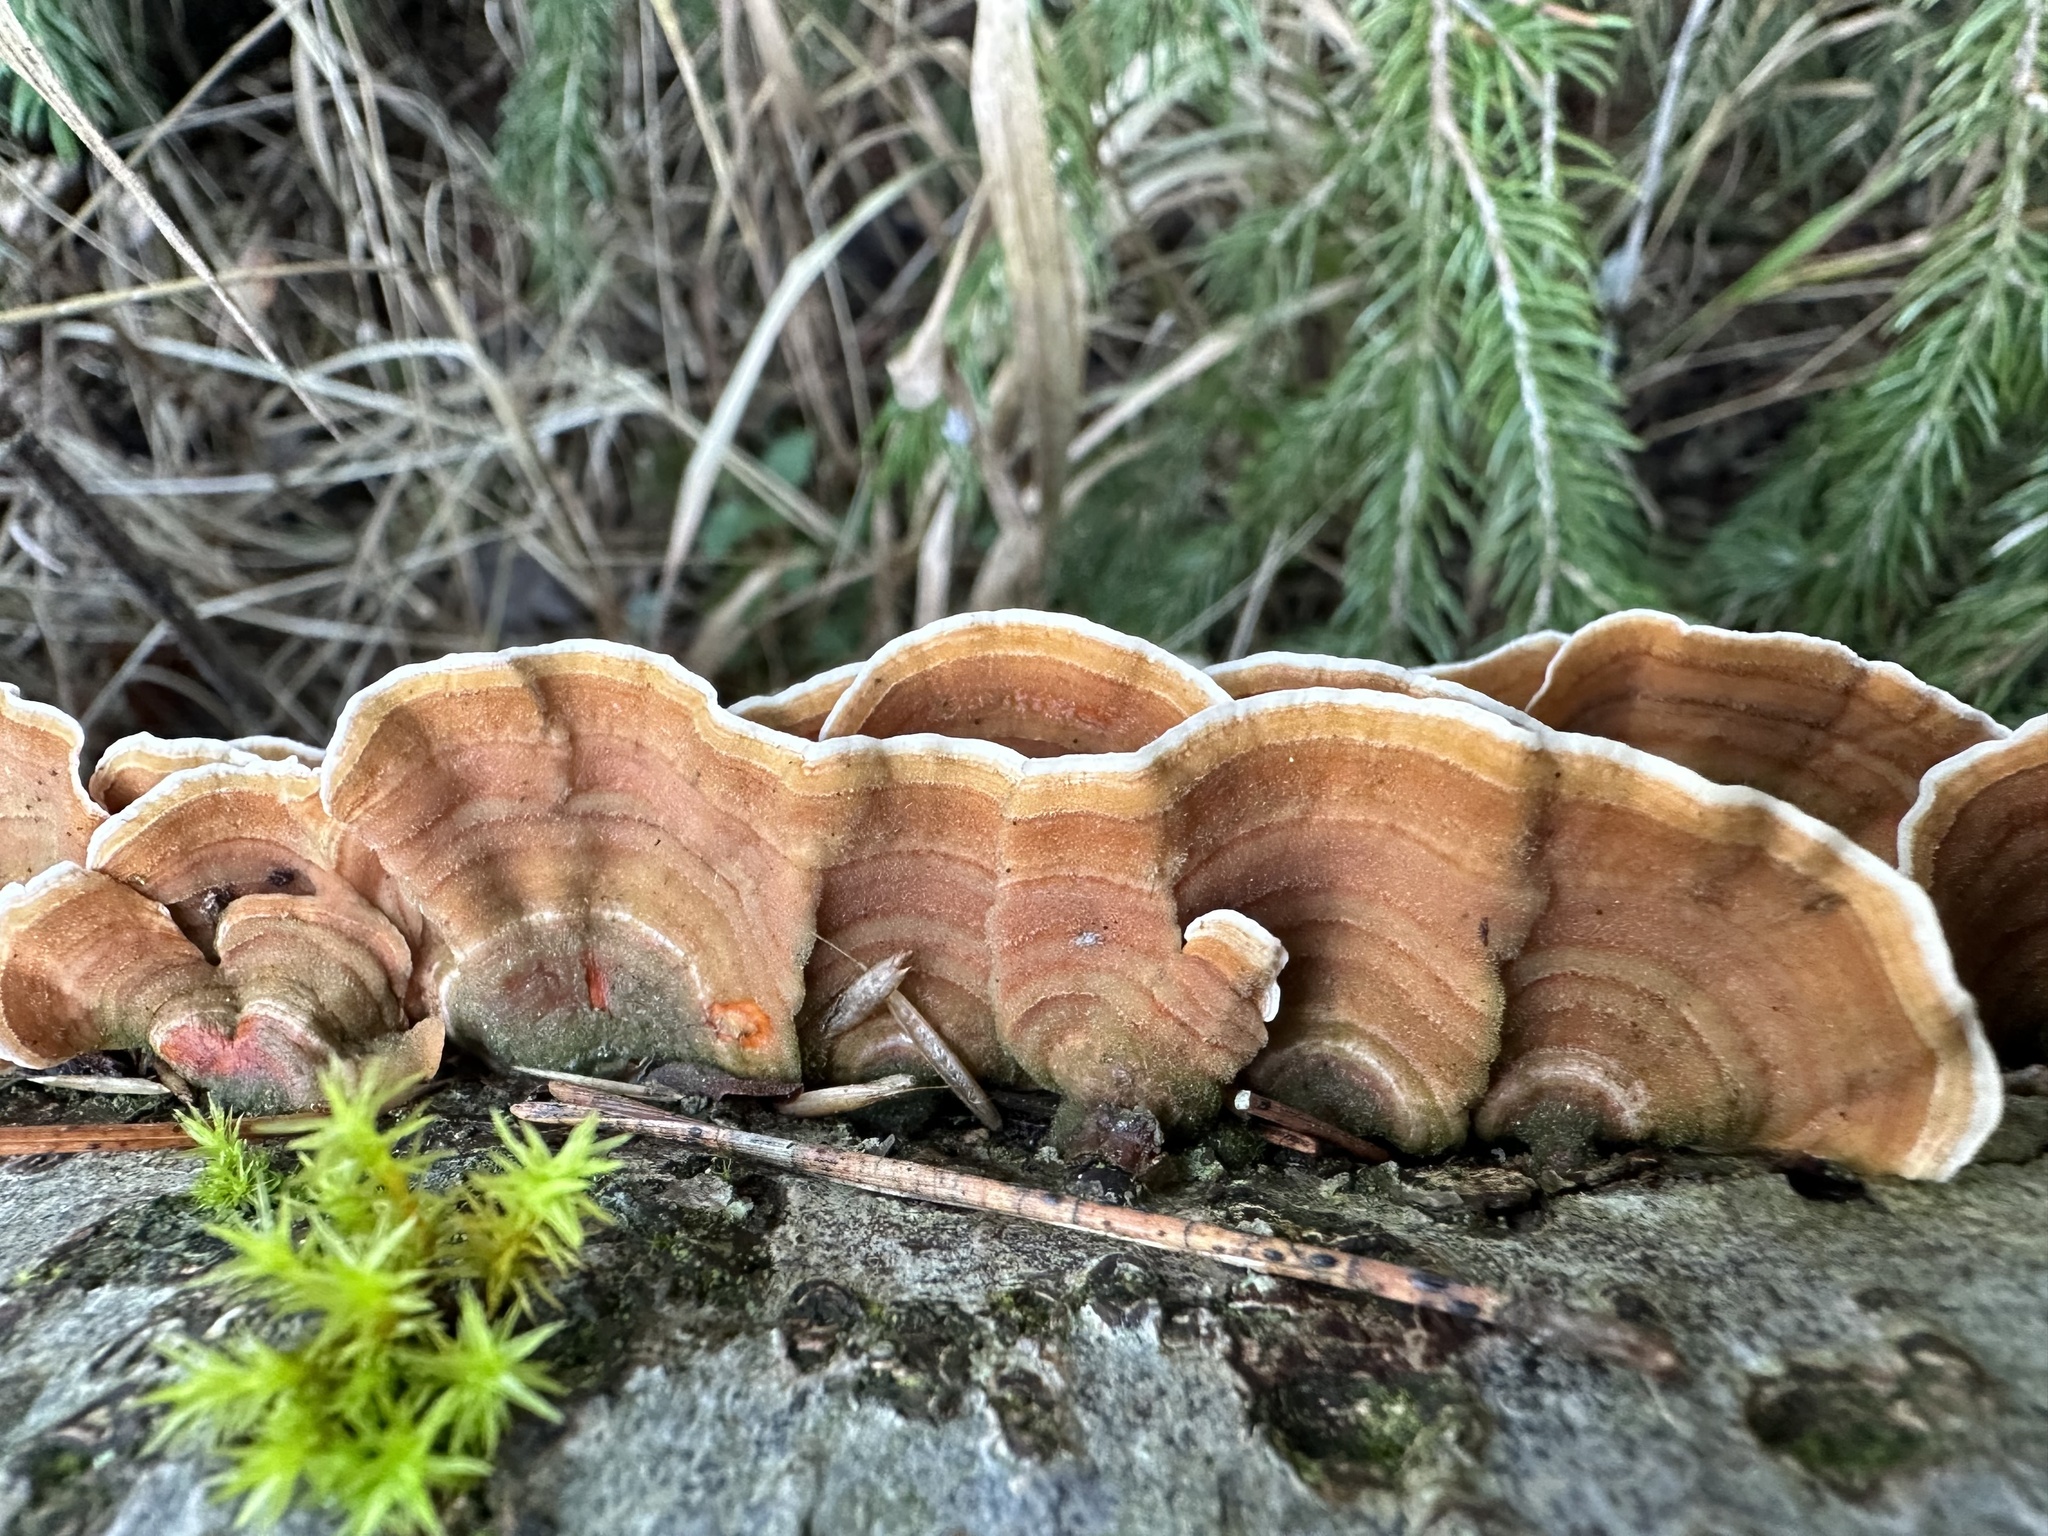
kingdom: Fungi
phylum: Basidiomycota
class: Agaricomycetes
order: Russulales
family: Stereaceae
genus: Stereum
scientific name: Stereum subtomentosum
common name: Yellowing curtain crust
